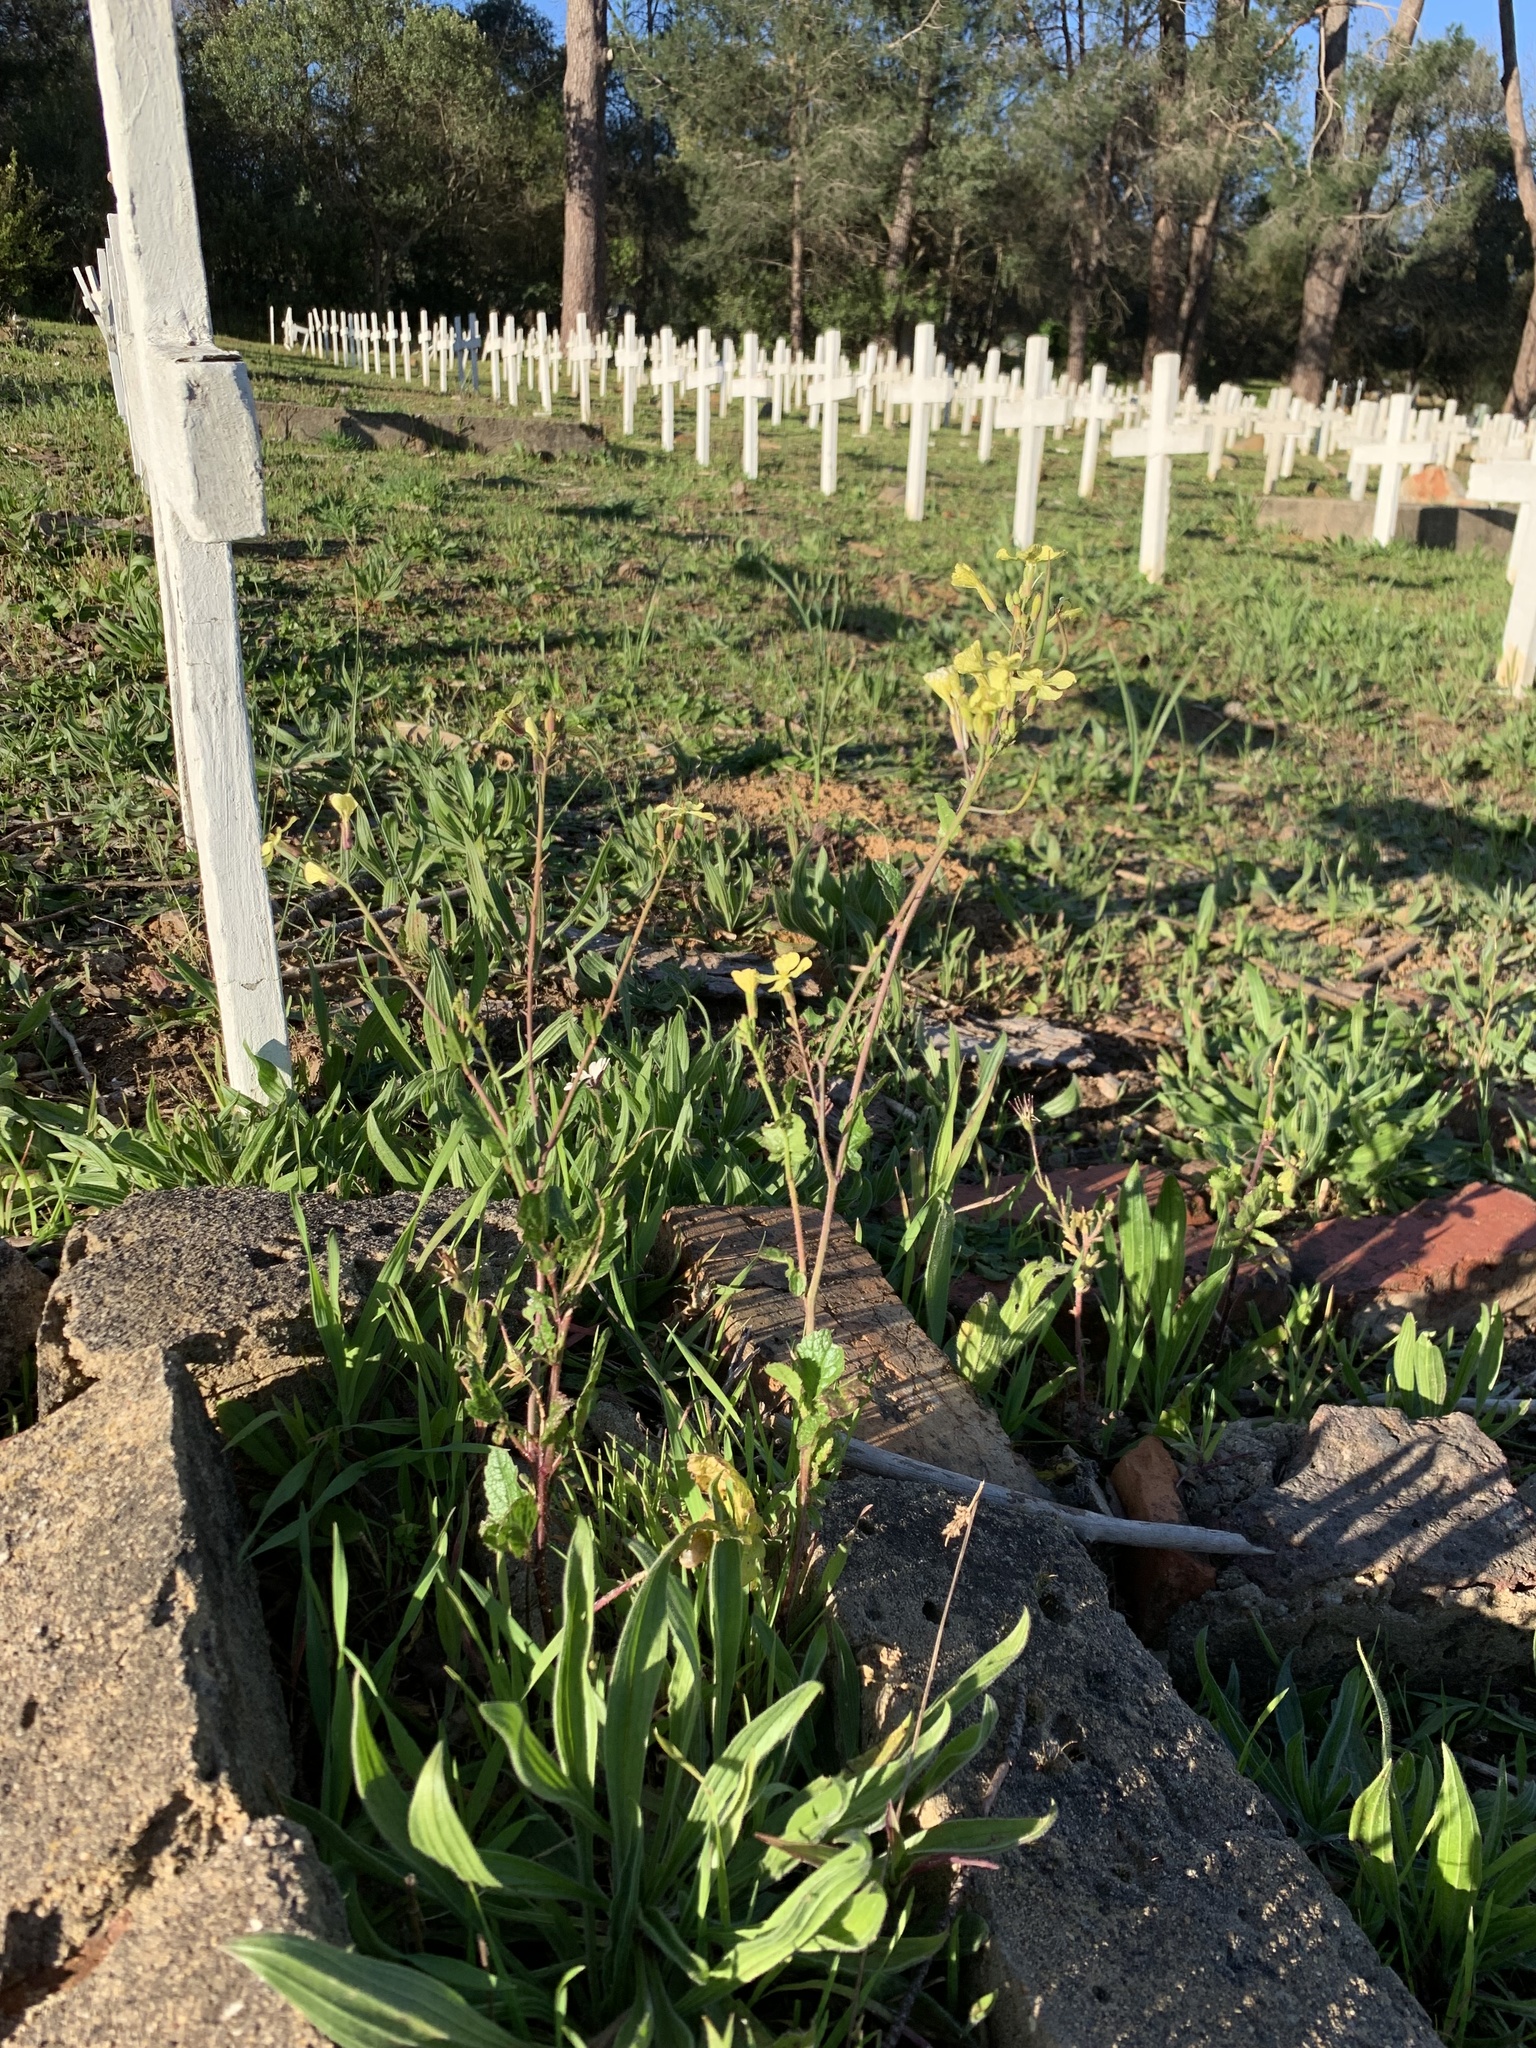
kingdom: Plantae
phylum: Tracheophyta
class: Magnoliopsida
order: Brassicales
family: Brassicaceae
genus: Raphanus
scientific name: Raphanus raphanistrum
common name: Wild radish
